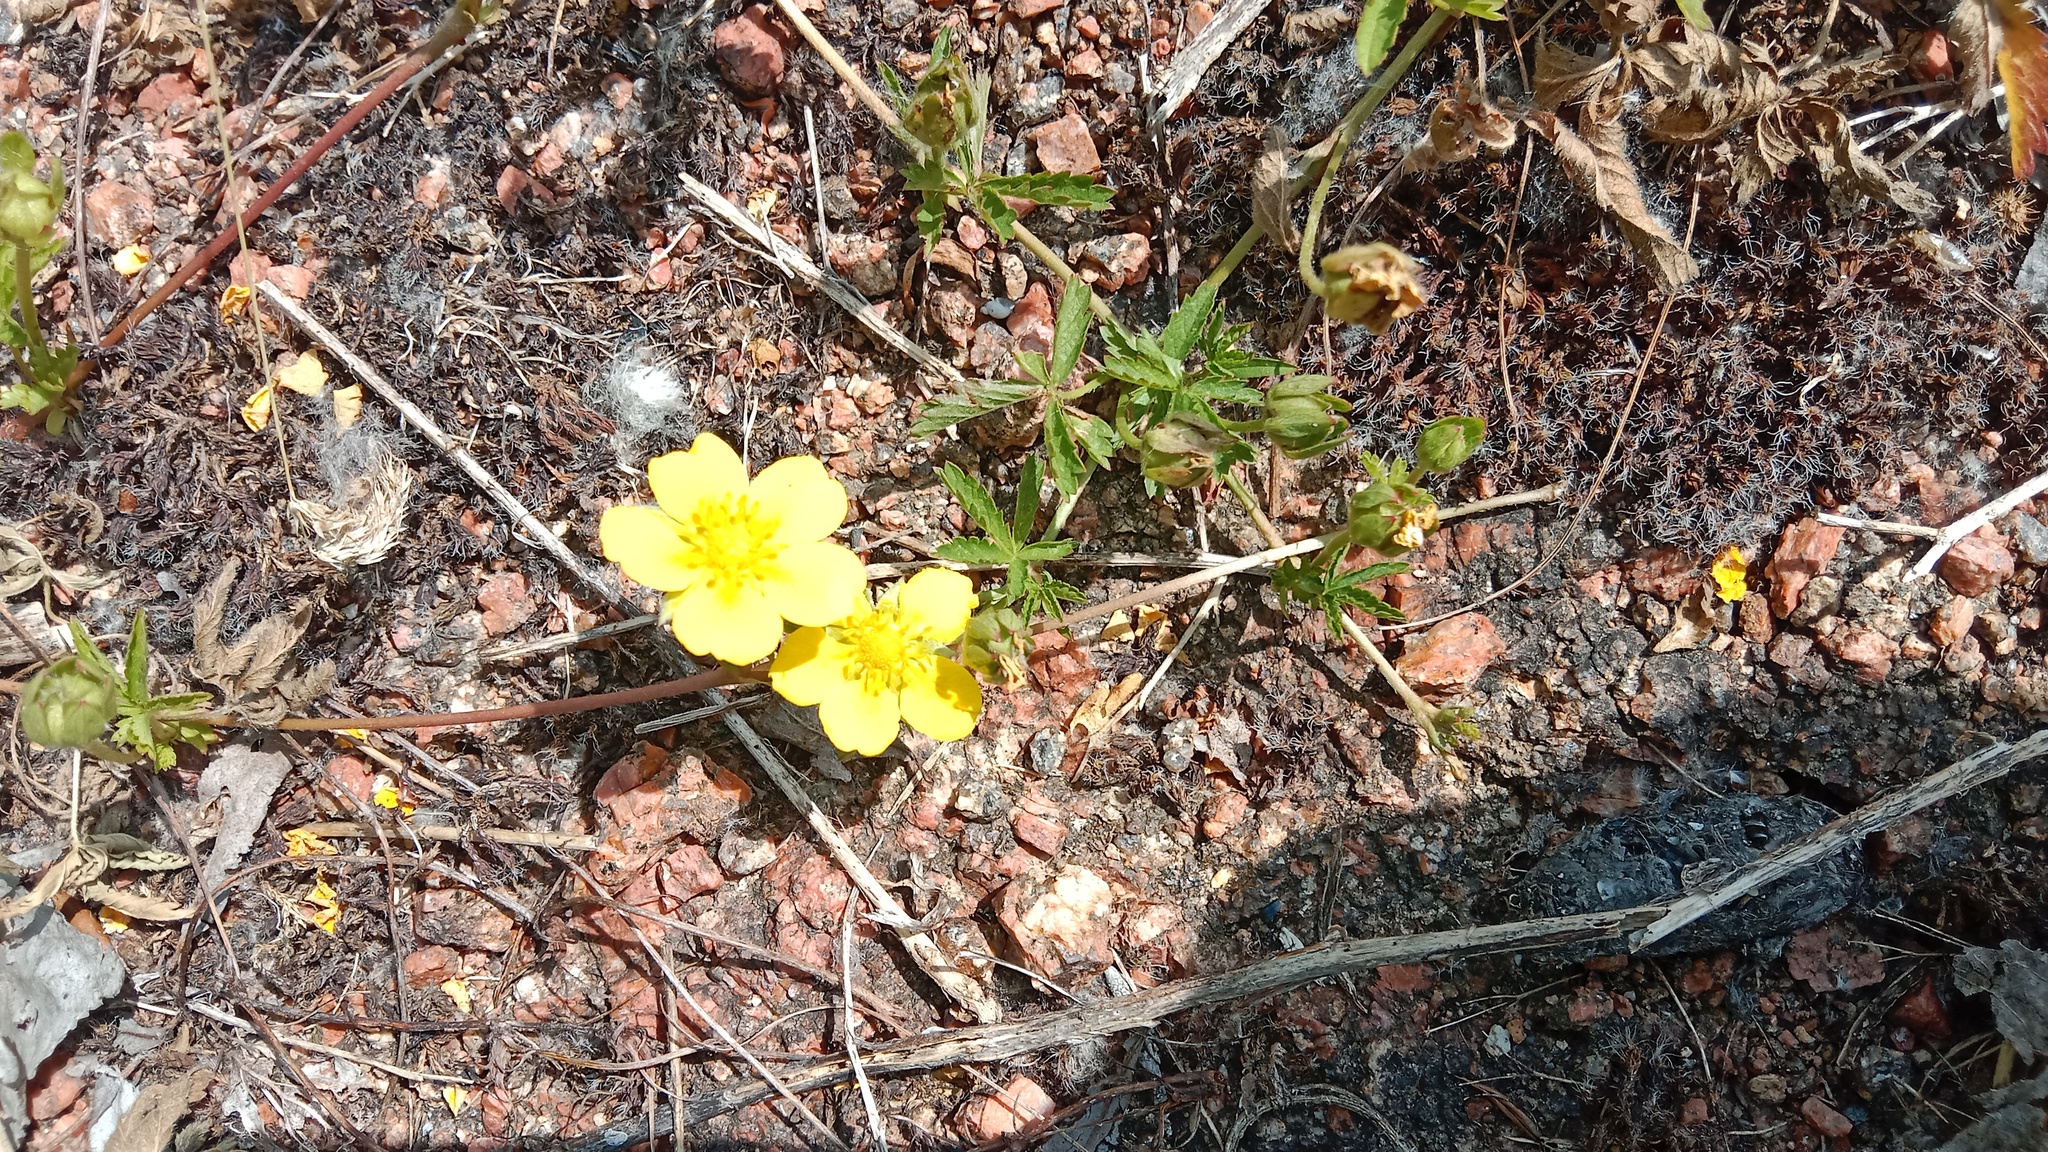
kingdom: Plantae
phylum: Tracheophyta
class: Magnoliopsida
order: Rosales
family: Rosaceae
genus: Potentilla
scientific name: Potentilla reptans
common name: Creeping cinquefoil
